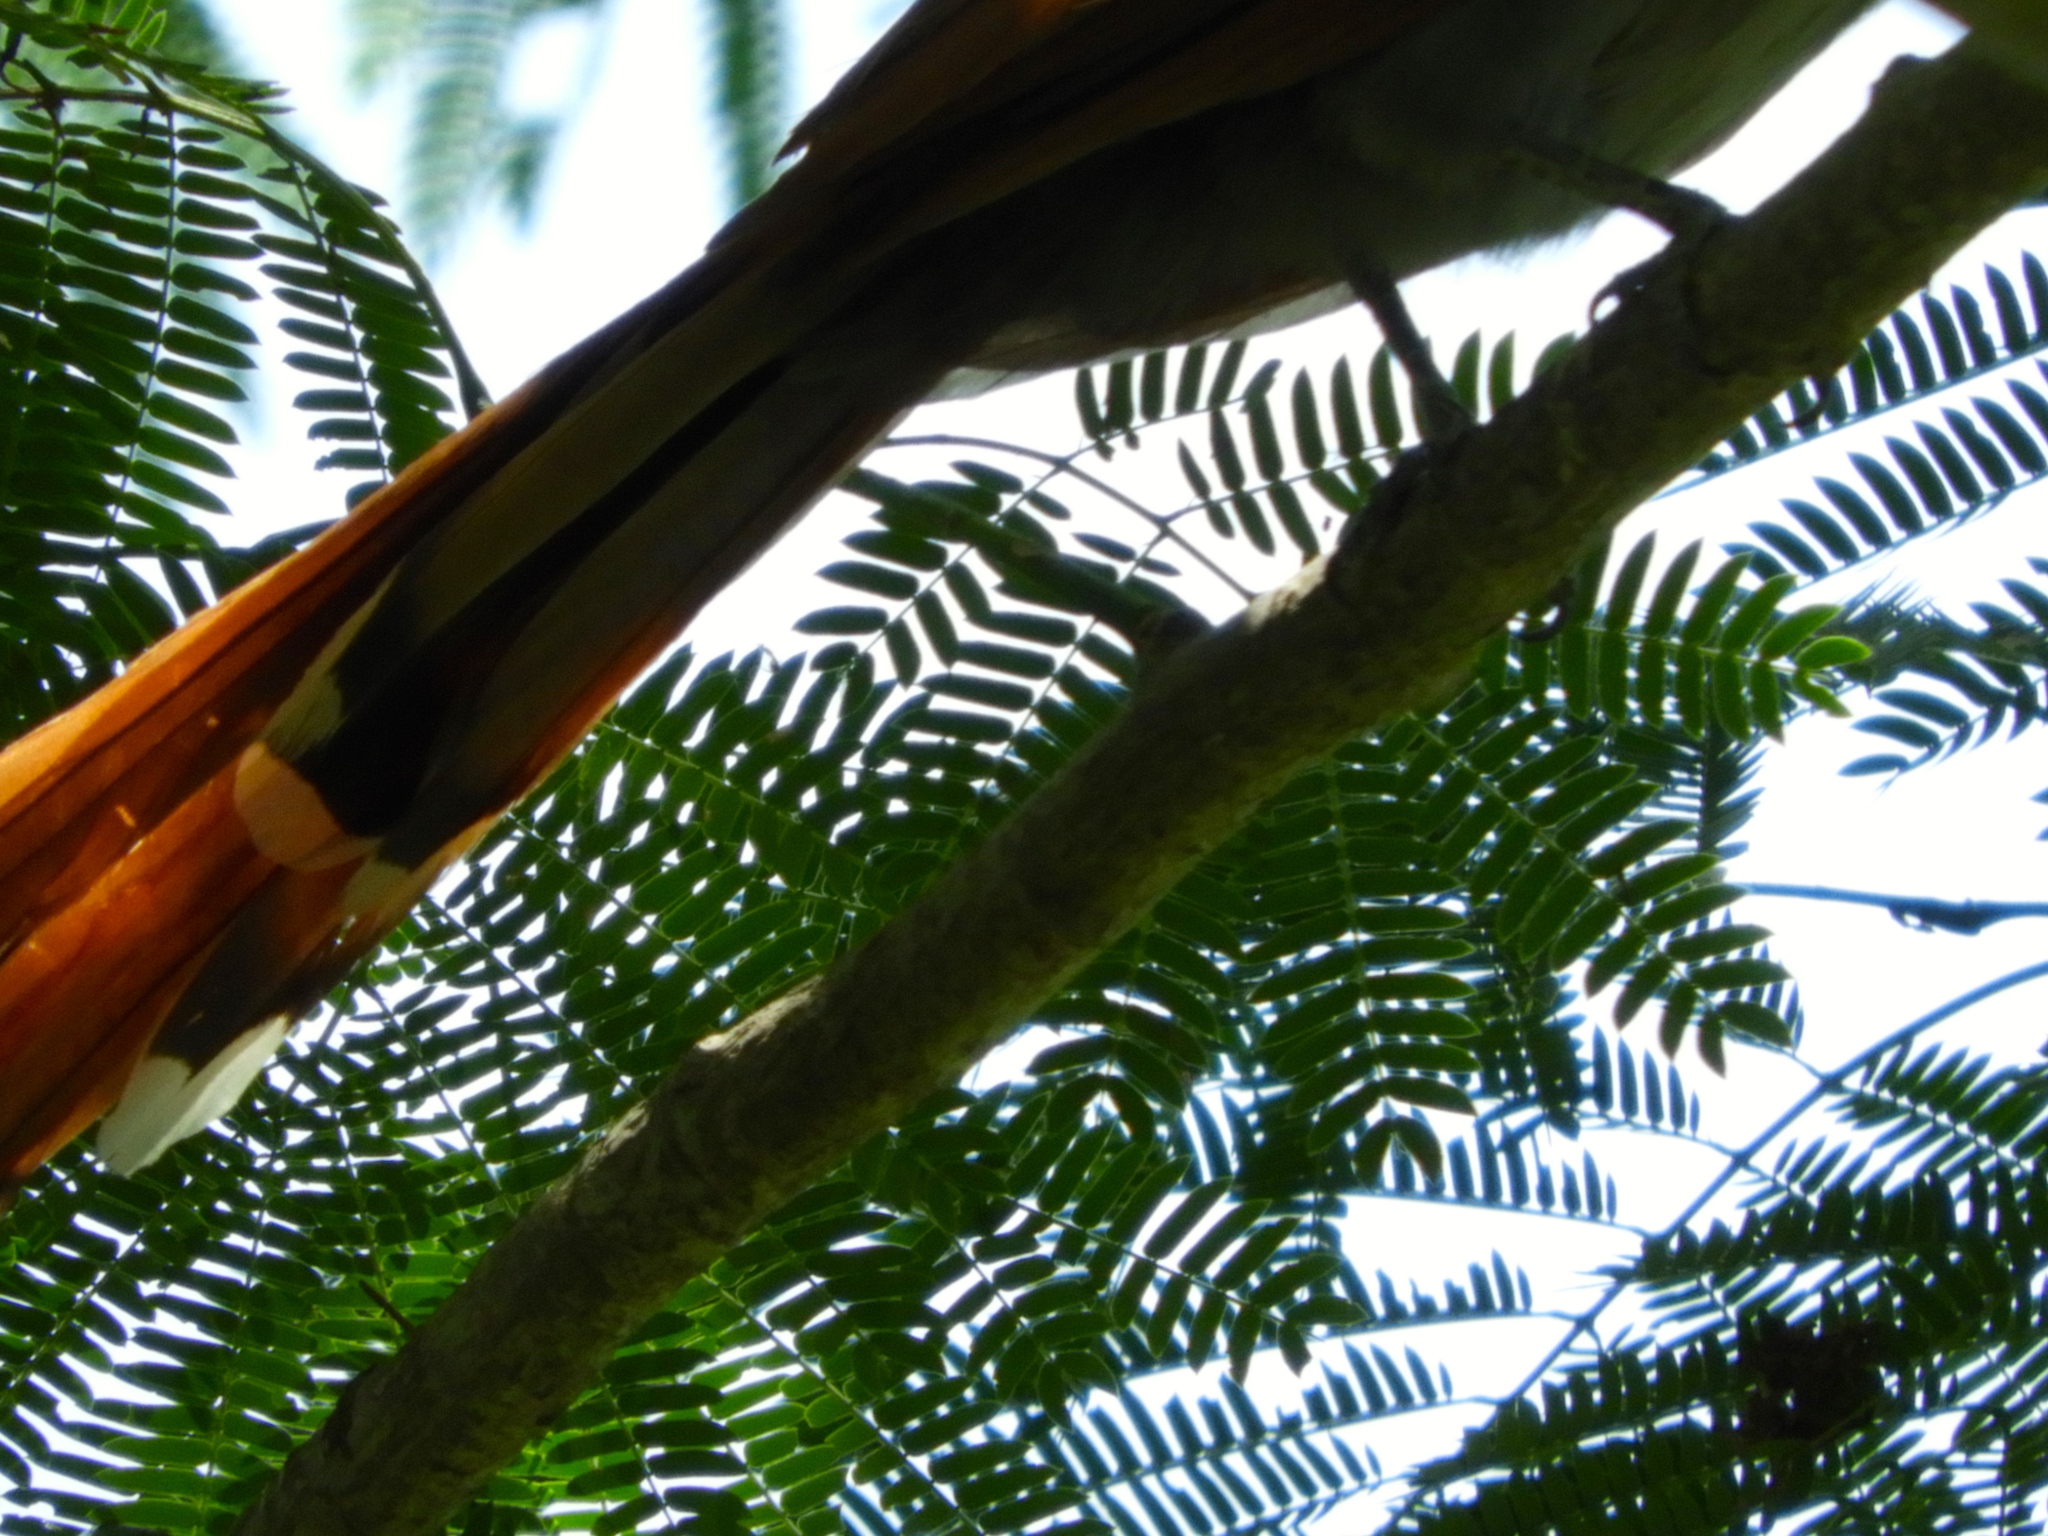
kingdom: Animalia
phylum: Chordata
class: Aves
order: Cuculiformes
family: Cuculidae
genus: Piaya
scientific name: Piaya cayana
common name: Squirrel cuckoo
